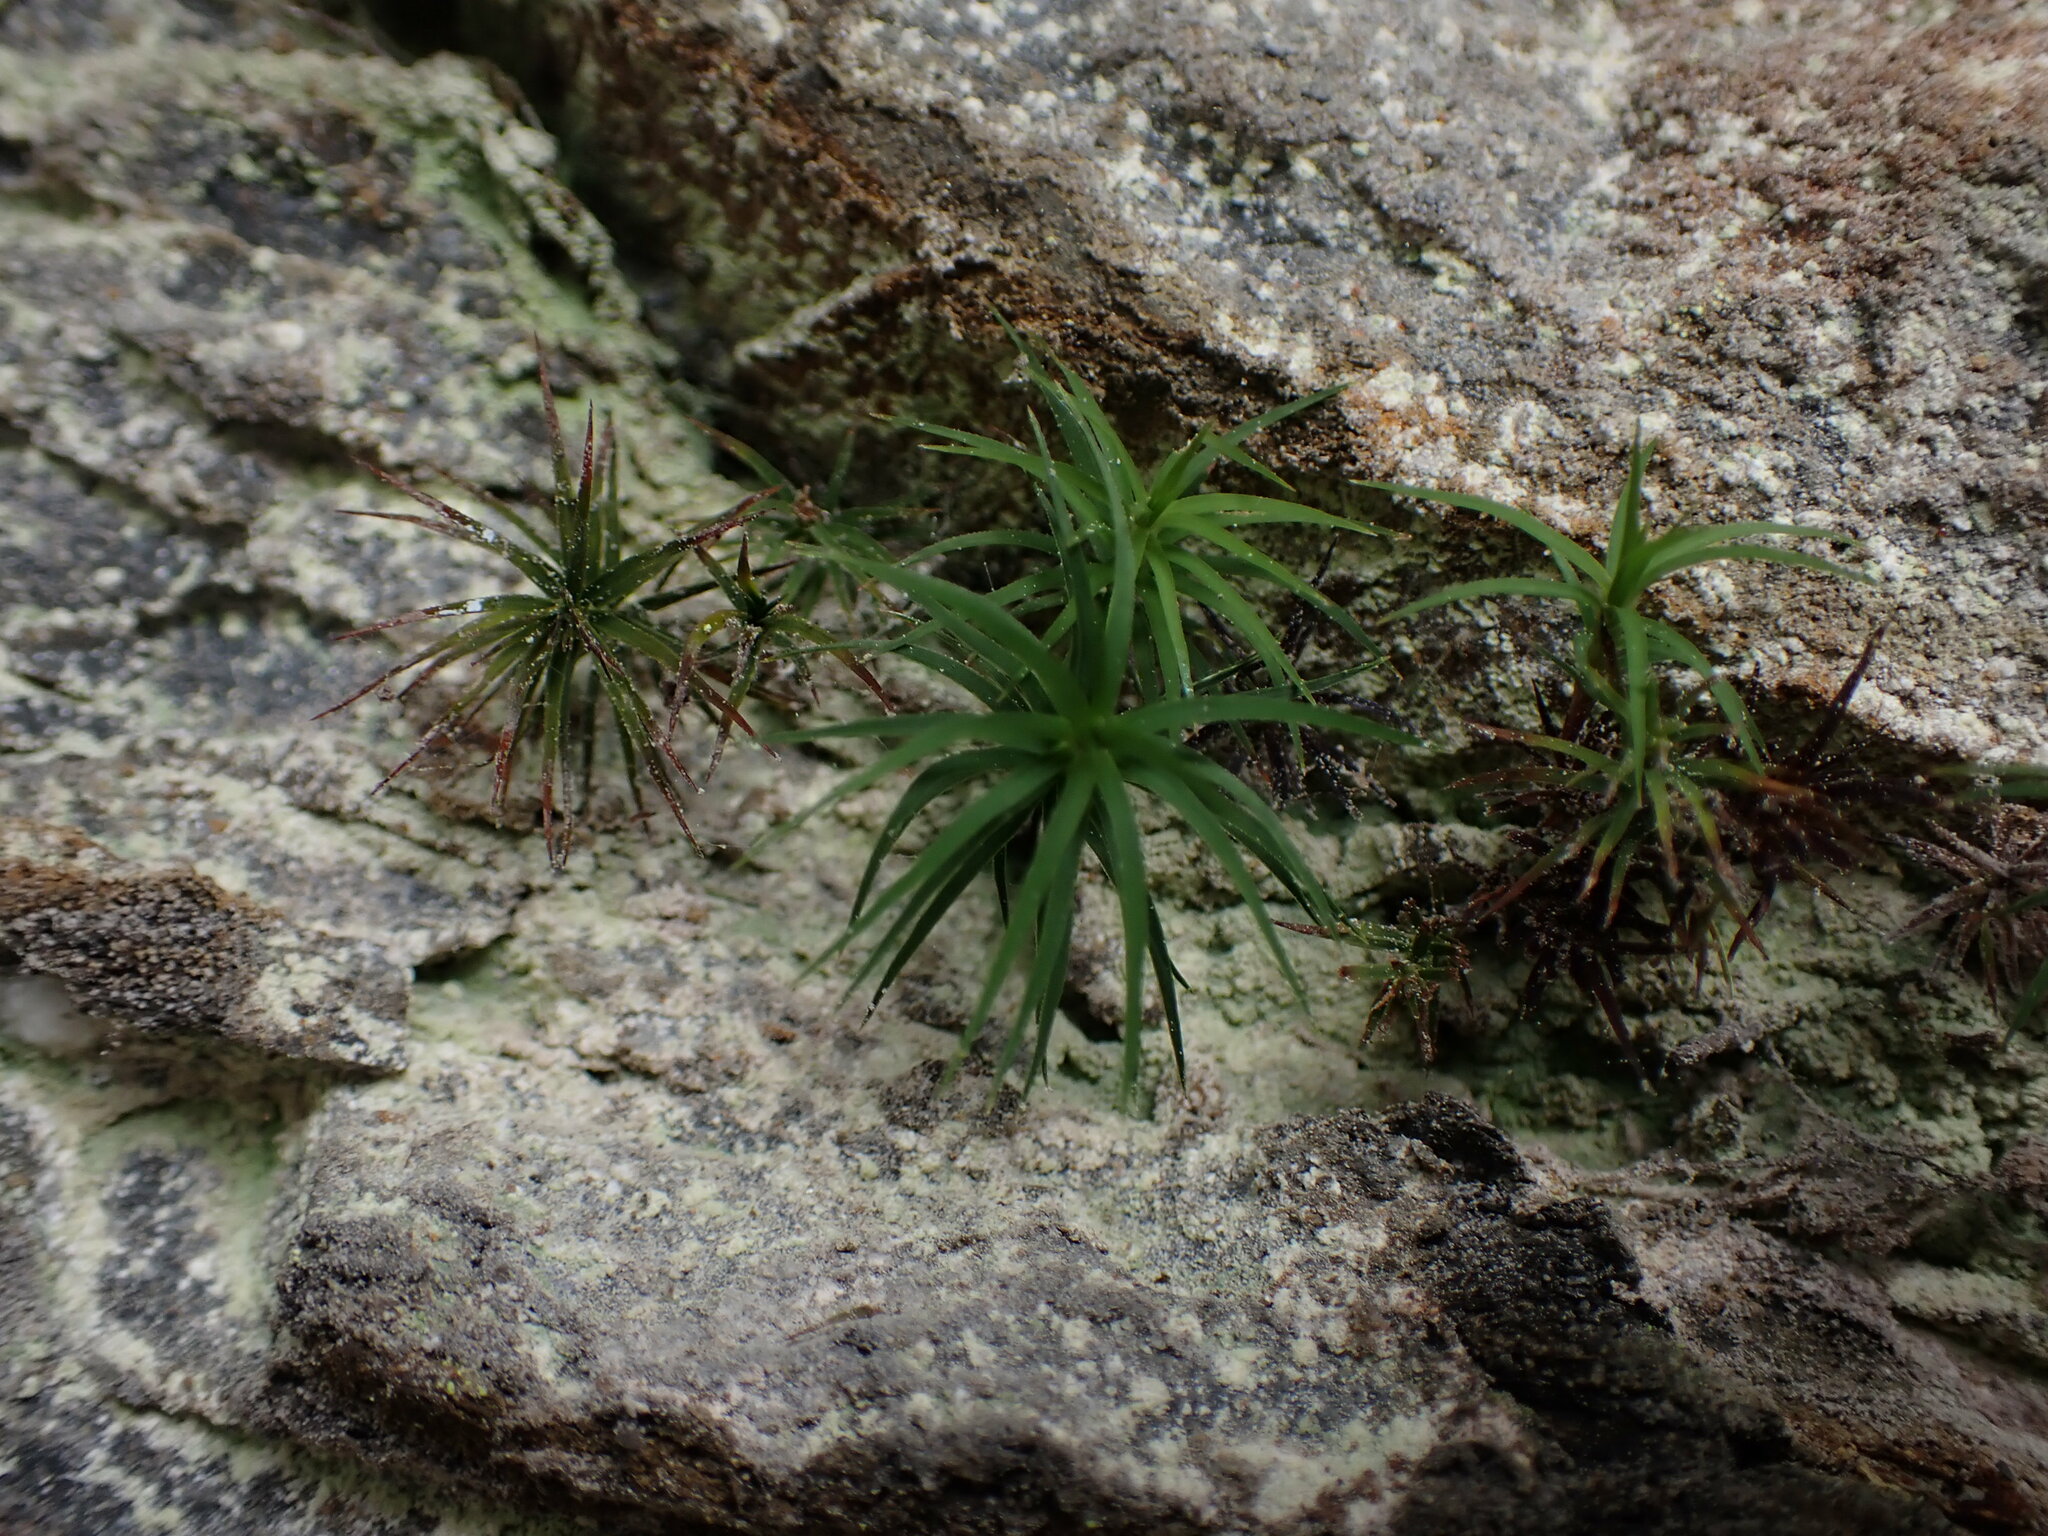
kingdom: Plantae
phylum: Bryophyta
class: Polytrichopsida
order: Polytrichales
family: Polytrichaceae
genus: Polytrichastrum
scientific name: Polytrichastrum alpinum
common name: Alpine haircap
